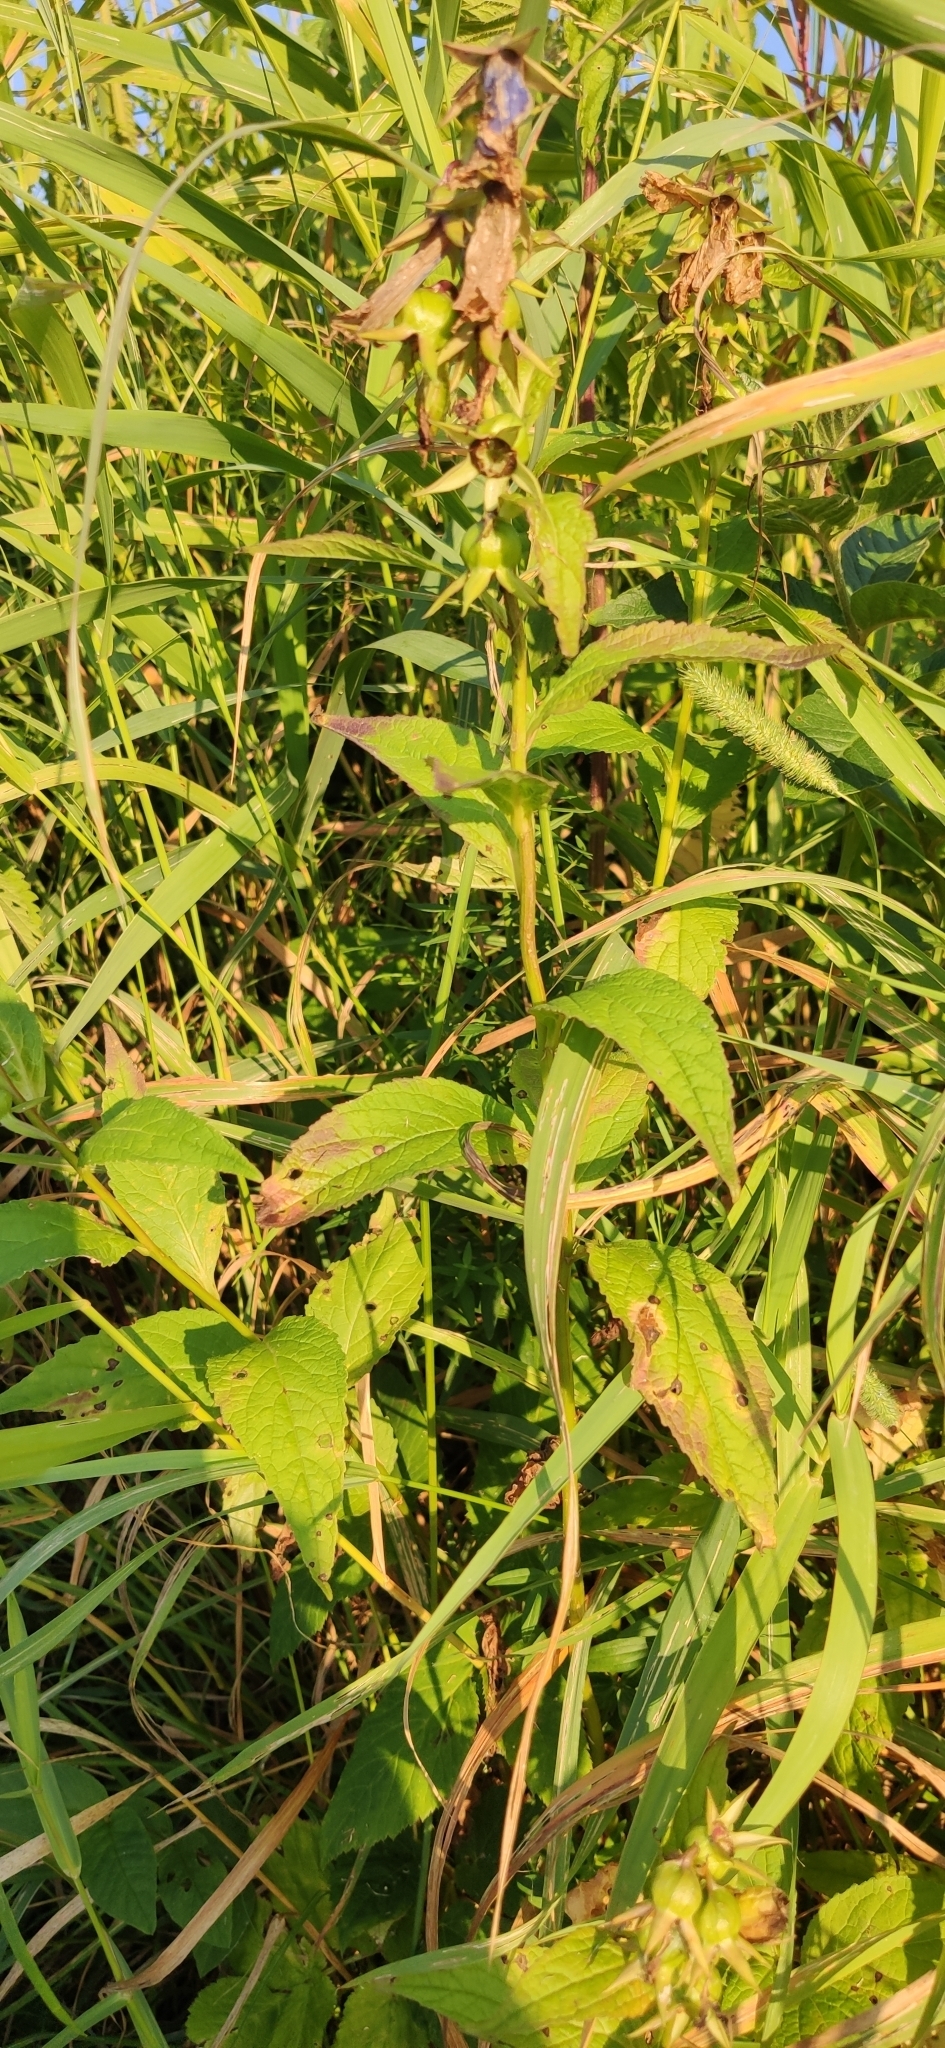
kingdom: Plantae
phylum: Tracheophyta
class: Magnoliopsida
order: Asterales
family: Campanulaceae
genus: Campanula
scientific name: Campanula latifolia
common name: Giant bellflower
